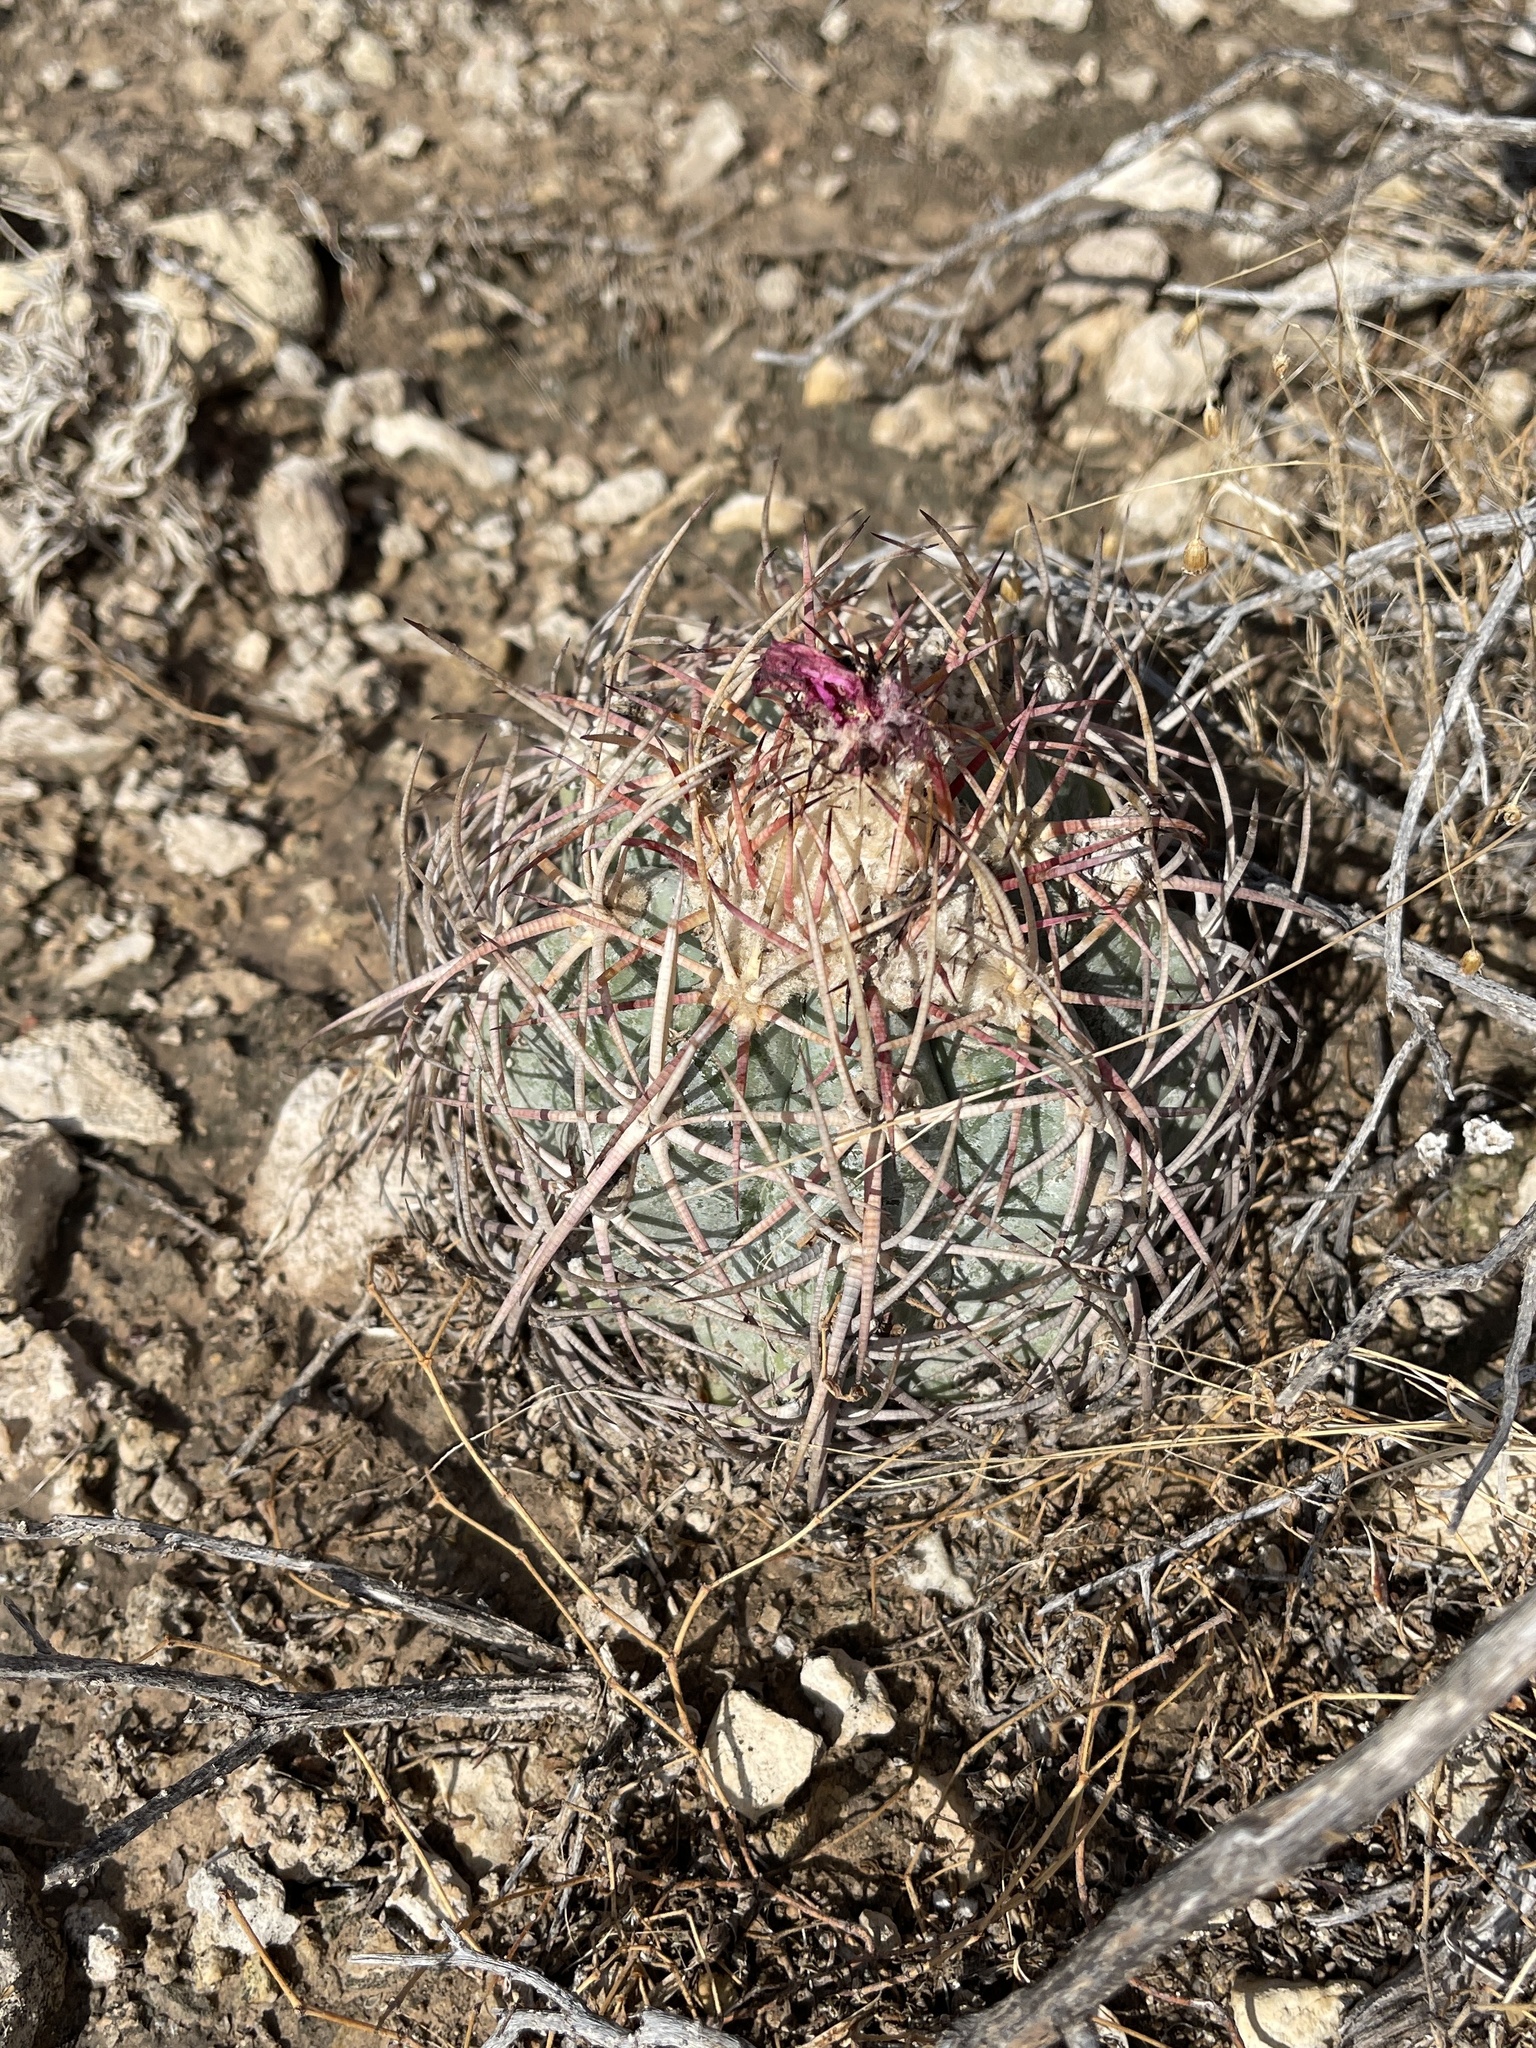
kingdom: Plantae
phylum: Tracheophyta
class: Magnoliopsida
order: Caryophyllales
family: Cactaceae
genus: Echinocactus
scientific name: Echinocactus horizonthalonius
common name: Devilshead
